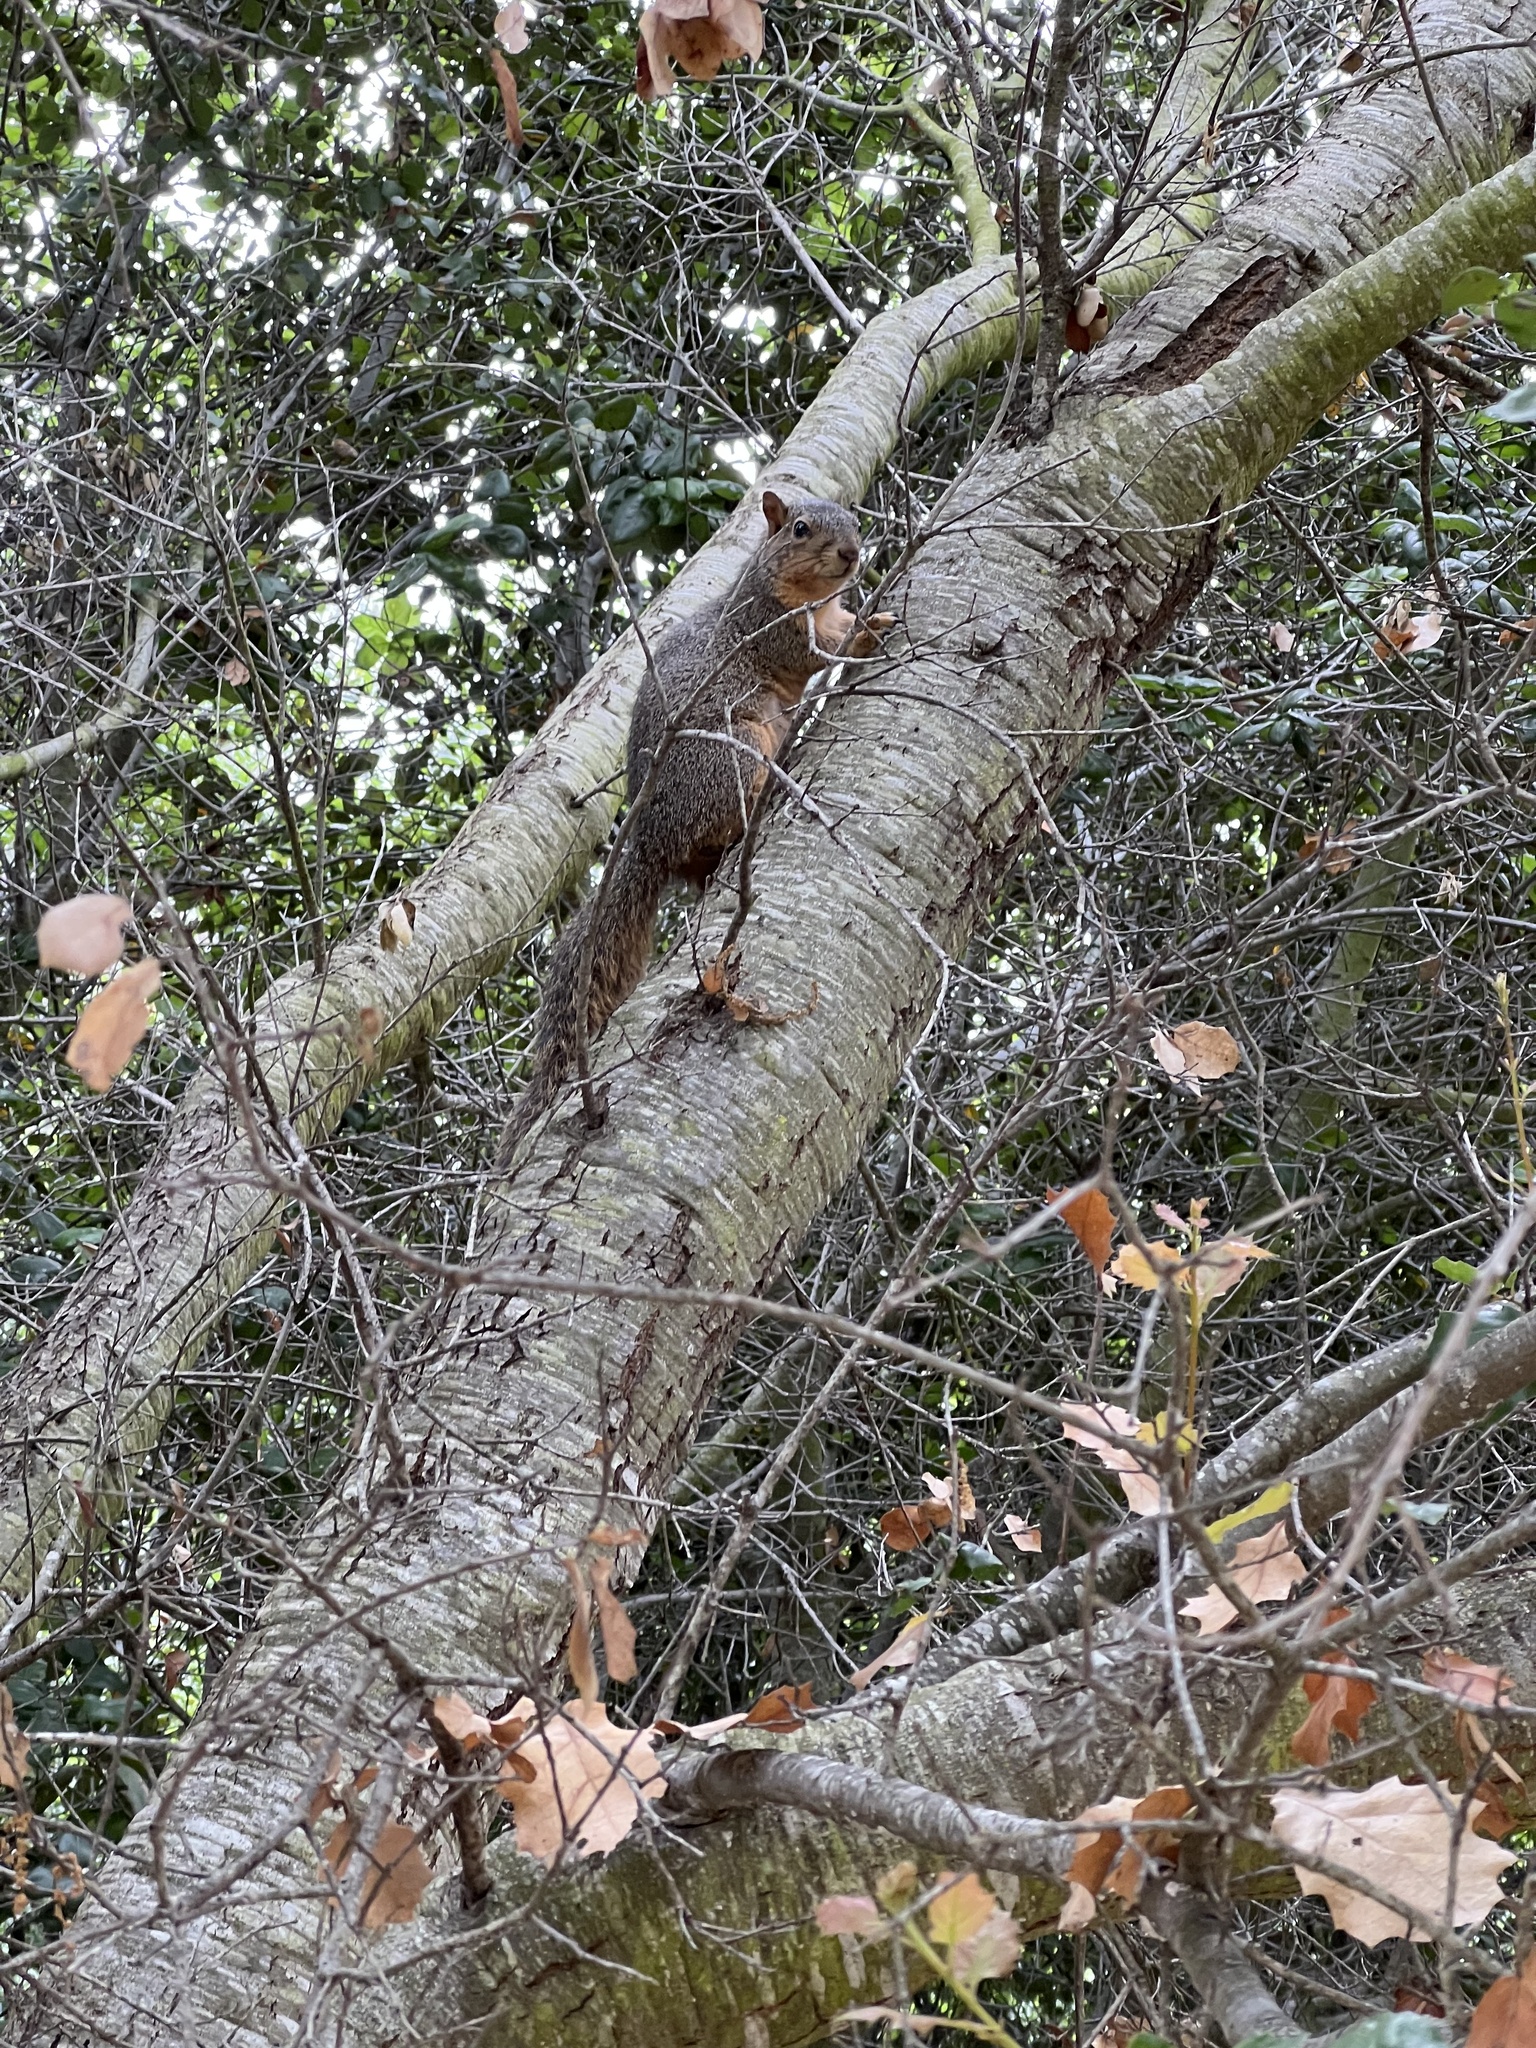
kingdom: Animalia
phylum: Chordata
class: Mammalia
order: Rodentia
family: Sciuridae
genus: Sciurus
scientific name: Sciurus niger
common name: Fox squirrel
